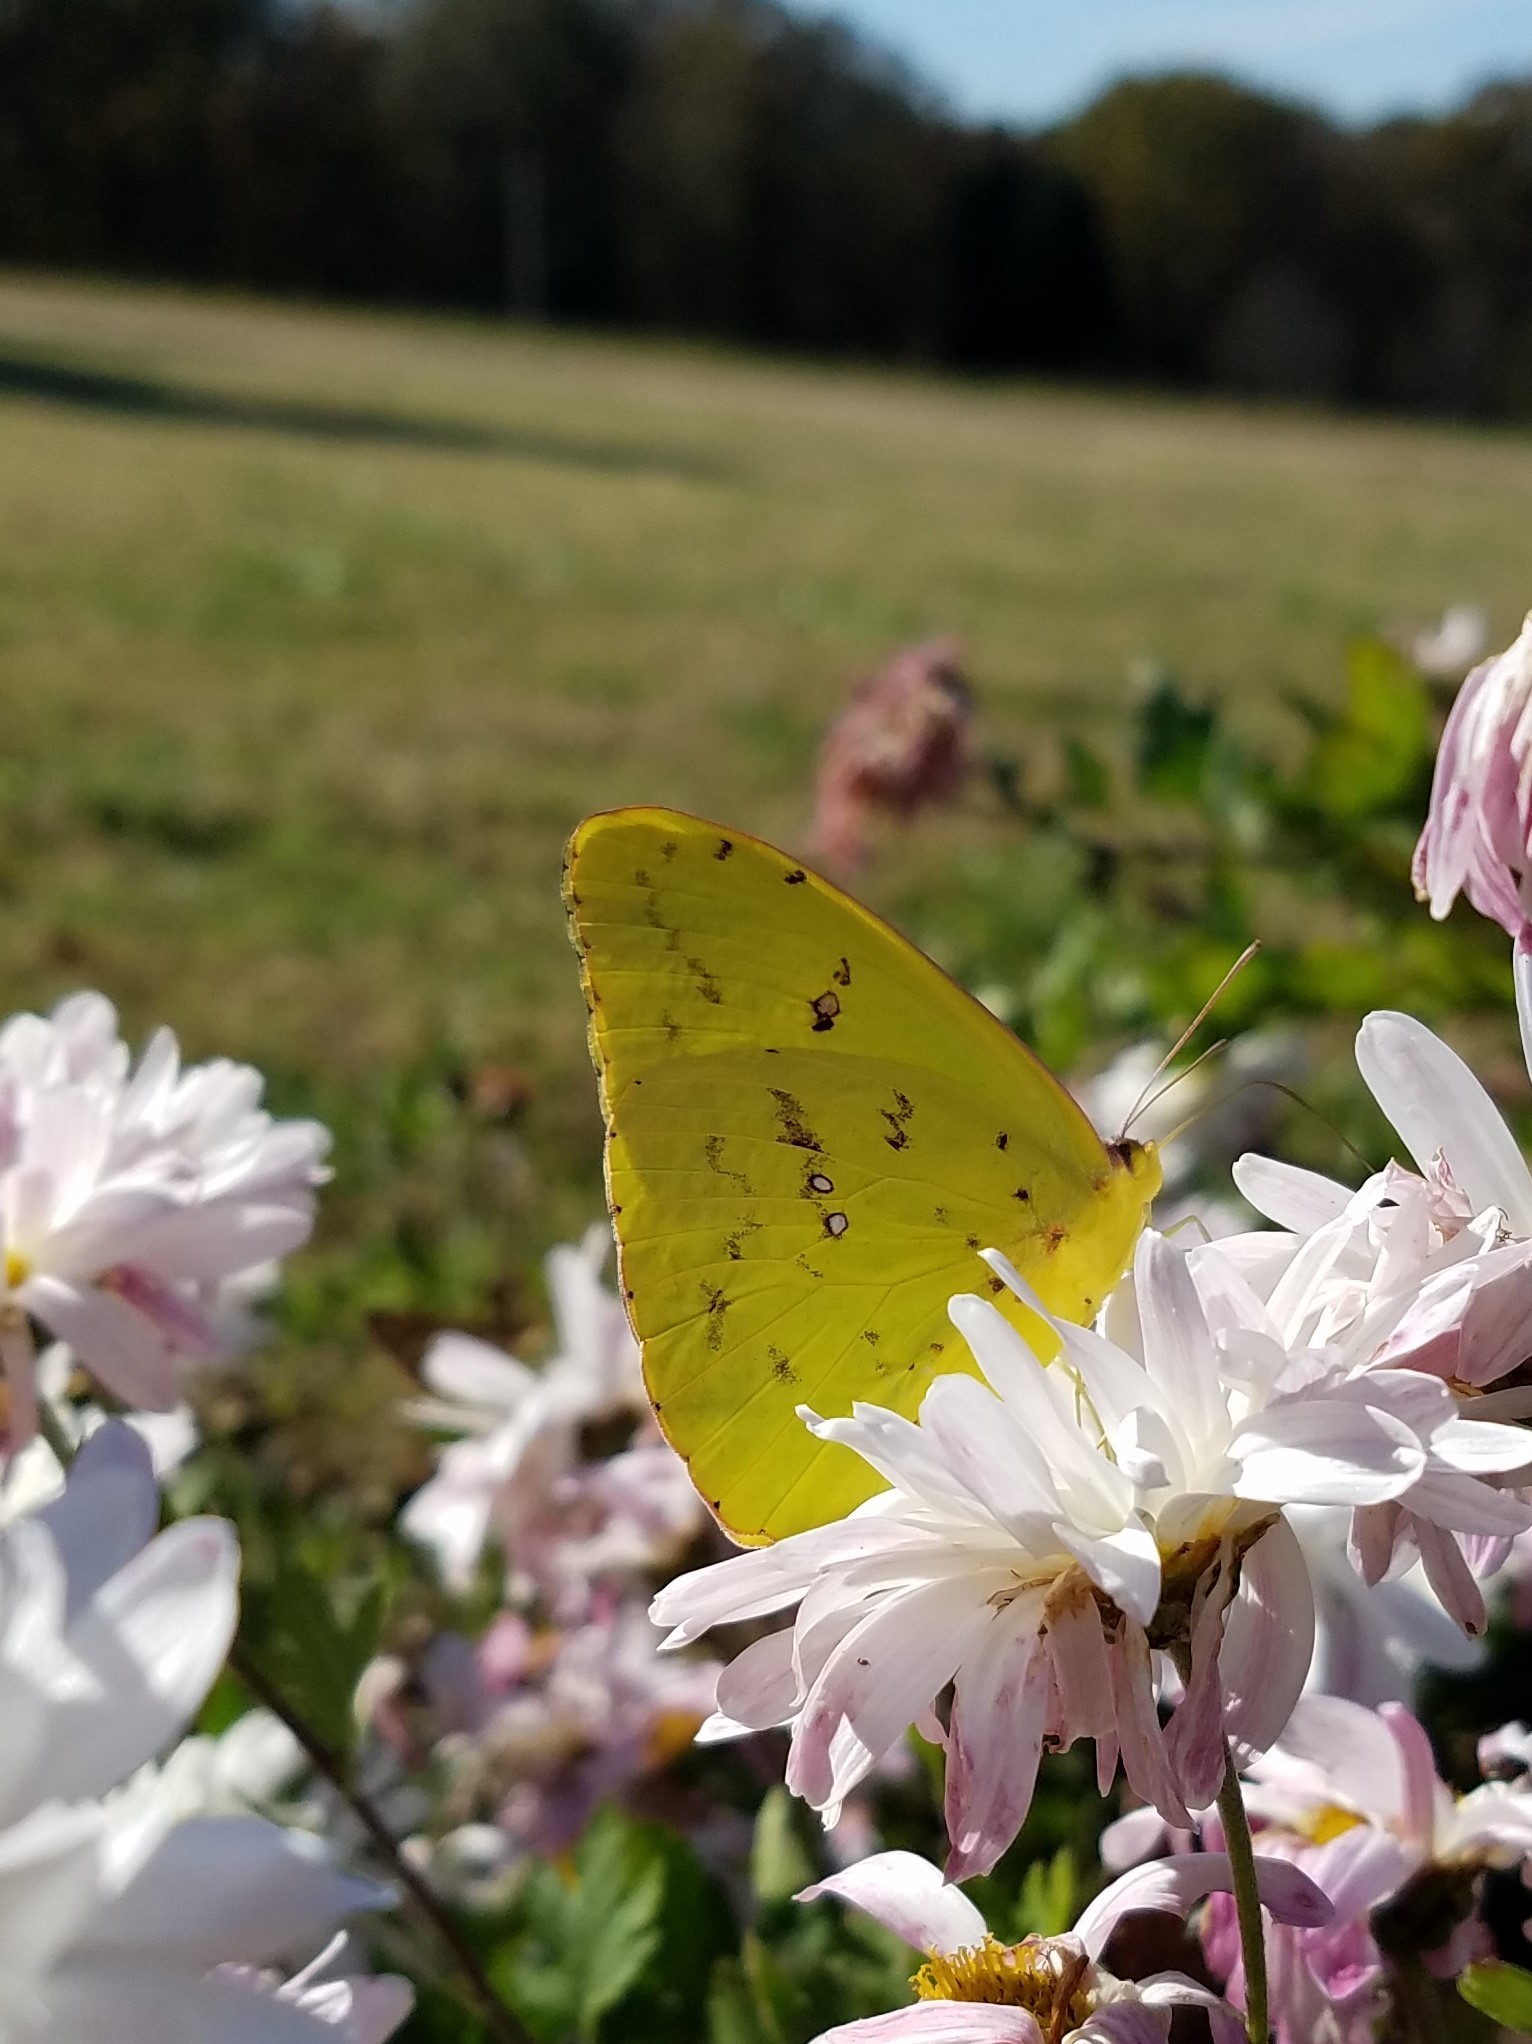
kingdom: Animalia
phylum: Arthropoda
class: Insecta
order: Lepidoptera
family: Pieridae
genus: Phoebis
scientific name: Phoebis sennae
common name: Cloudless sulphur
